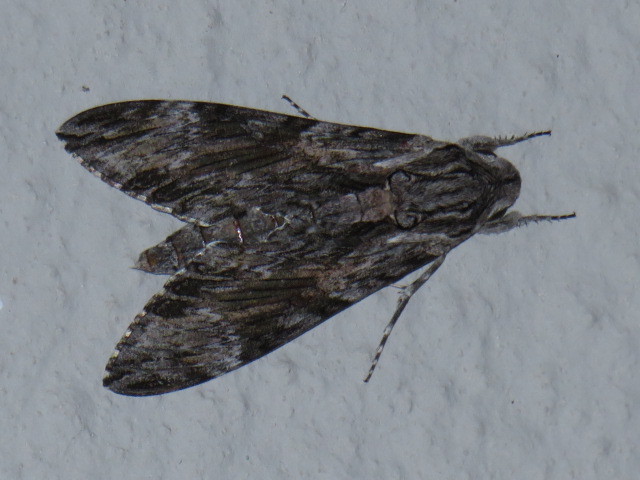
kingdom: Animalia
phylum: Arthropoda
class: Insecta
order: Lepidoptera
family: Sphingidae
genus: Agrius
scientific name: Agrius convolvuli
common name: Convolvulus hawkmoth
